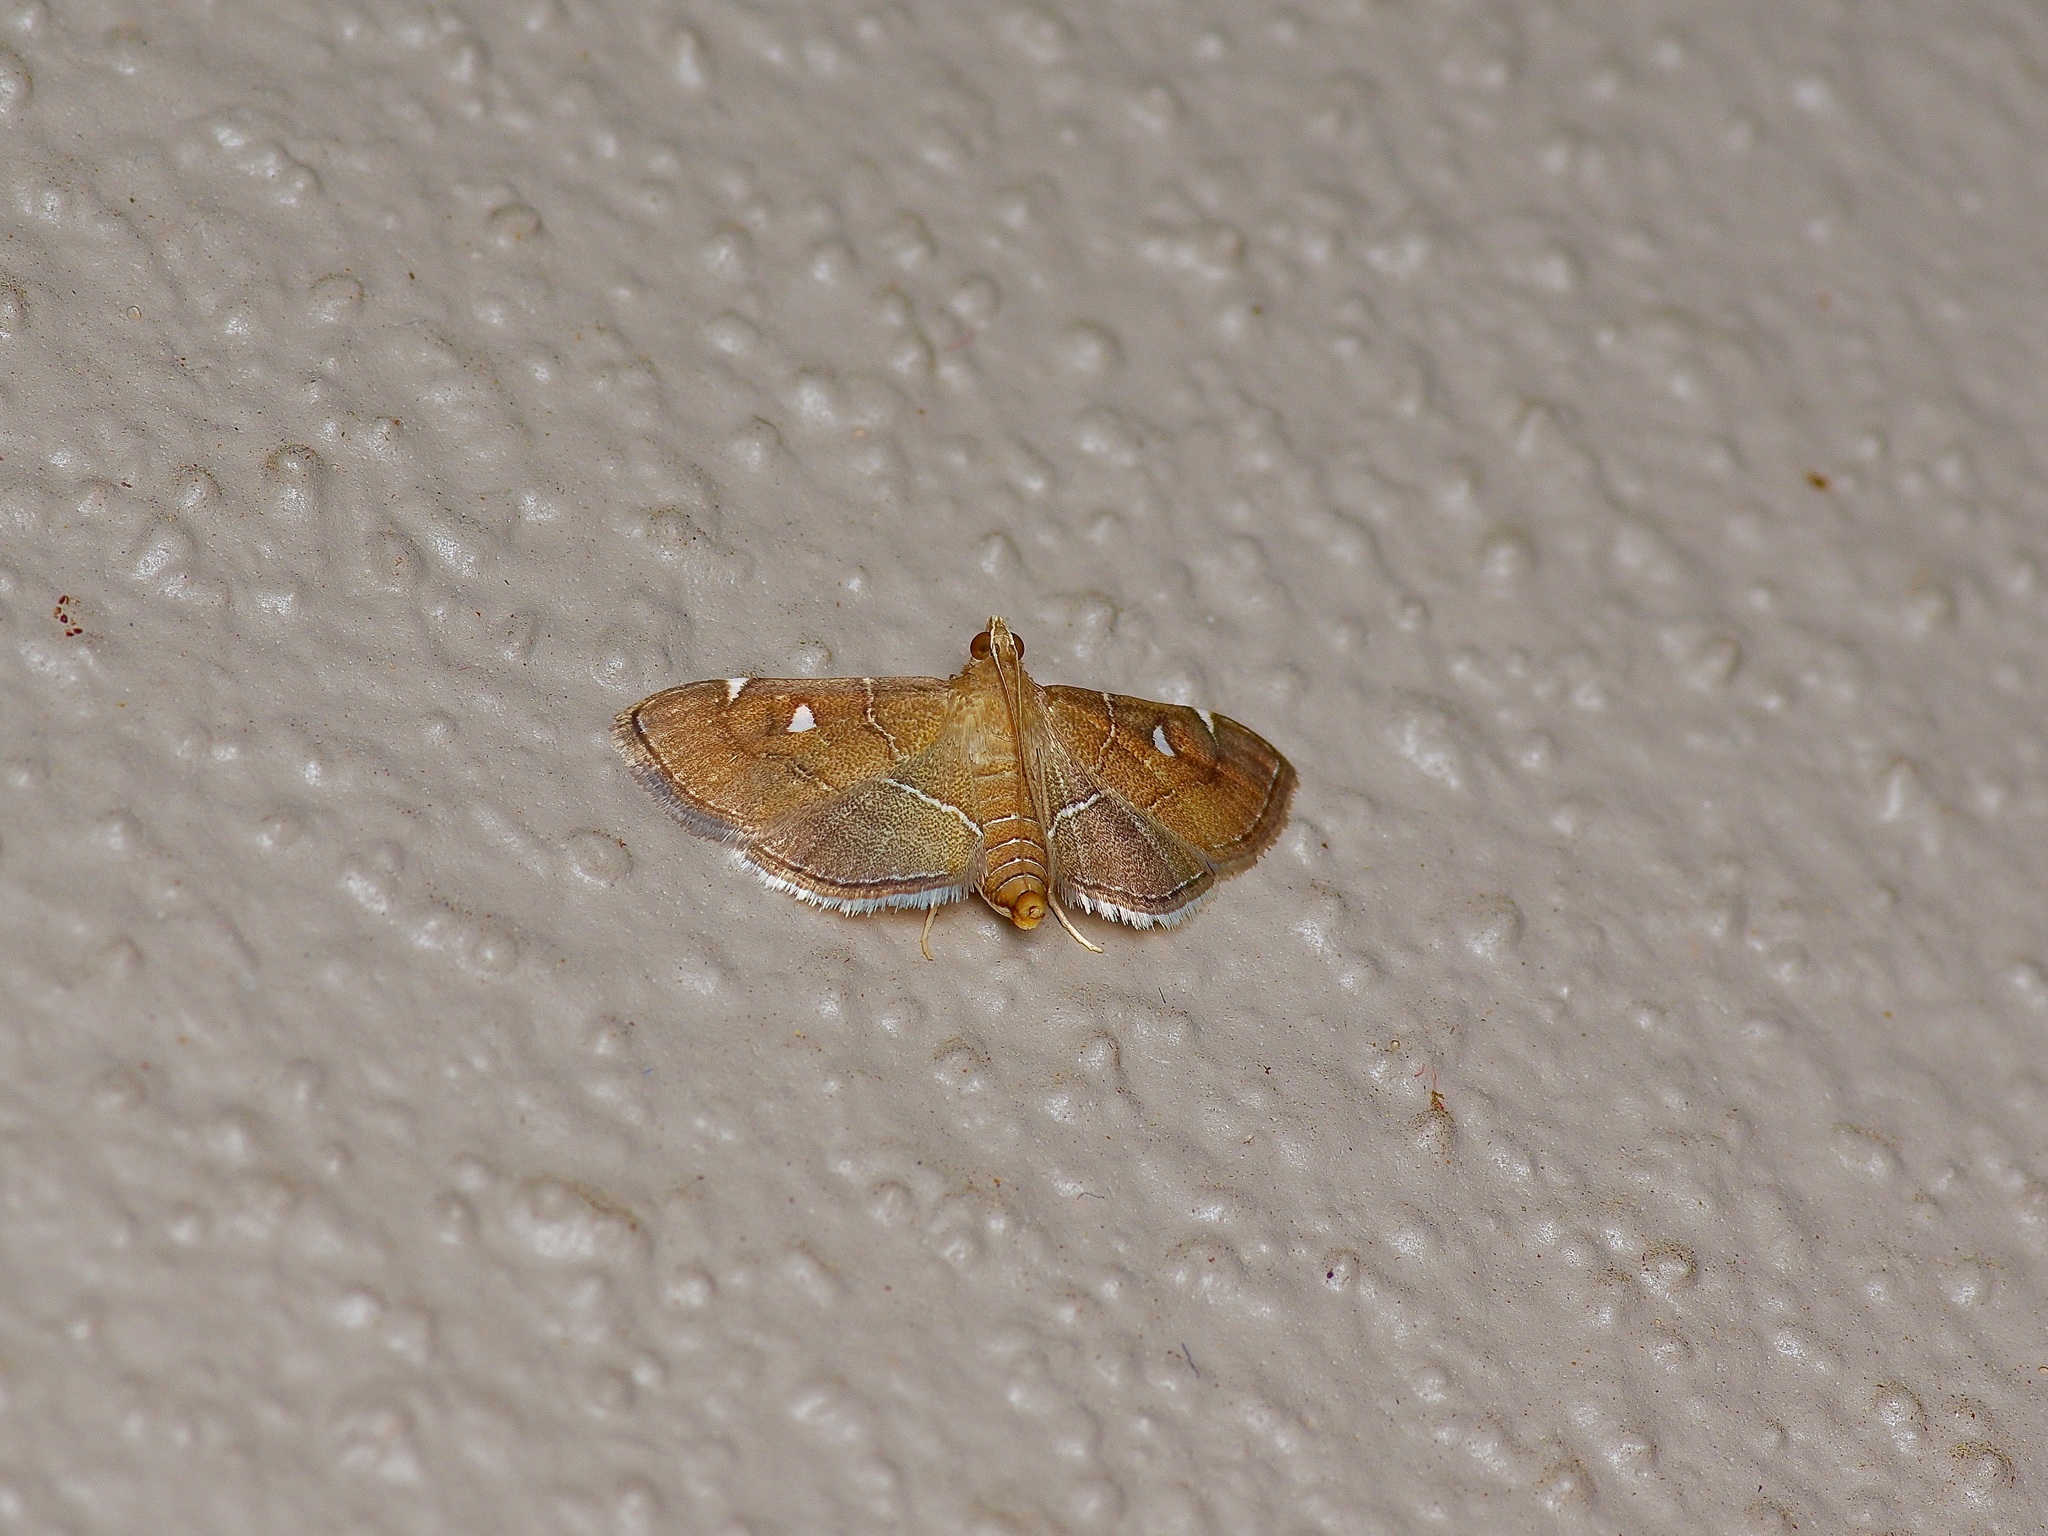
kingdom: Animalia
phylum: Arthropoda
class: Insecta
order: Lepidoptera
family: Crambidae
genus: Lamprosema
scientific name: Lamprosema victoriae
